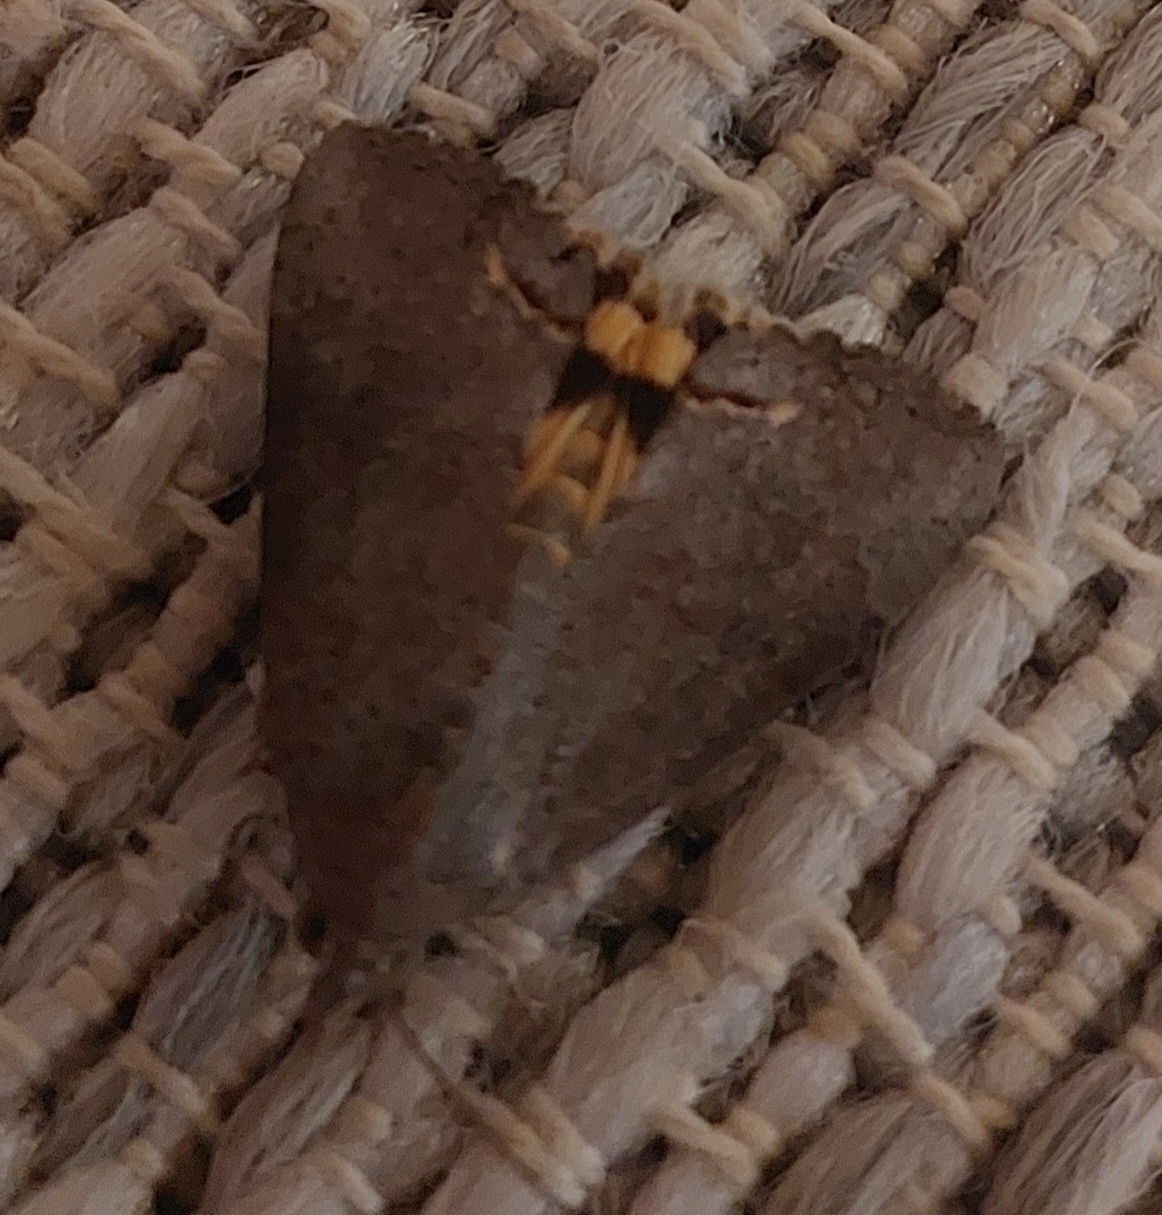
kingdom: Animalia
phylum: Arthropoda
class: Insecta
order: Lepidoptera
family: Erebidae
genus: Hypocala
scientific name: Hypocala deflorata
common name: Moth
